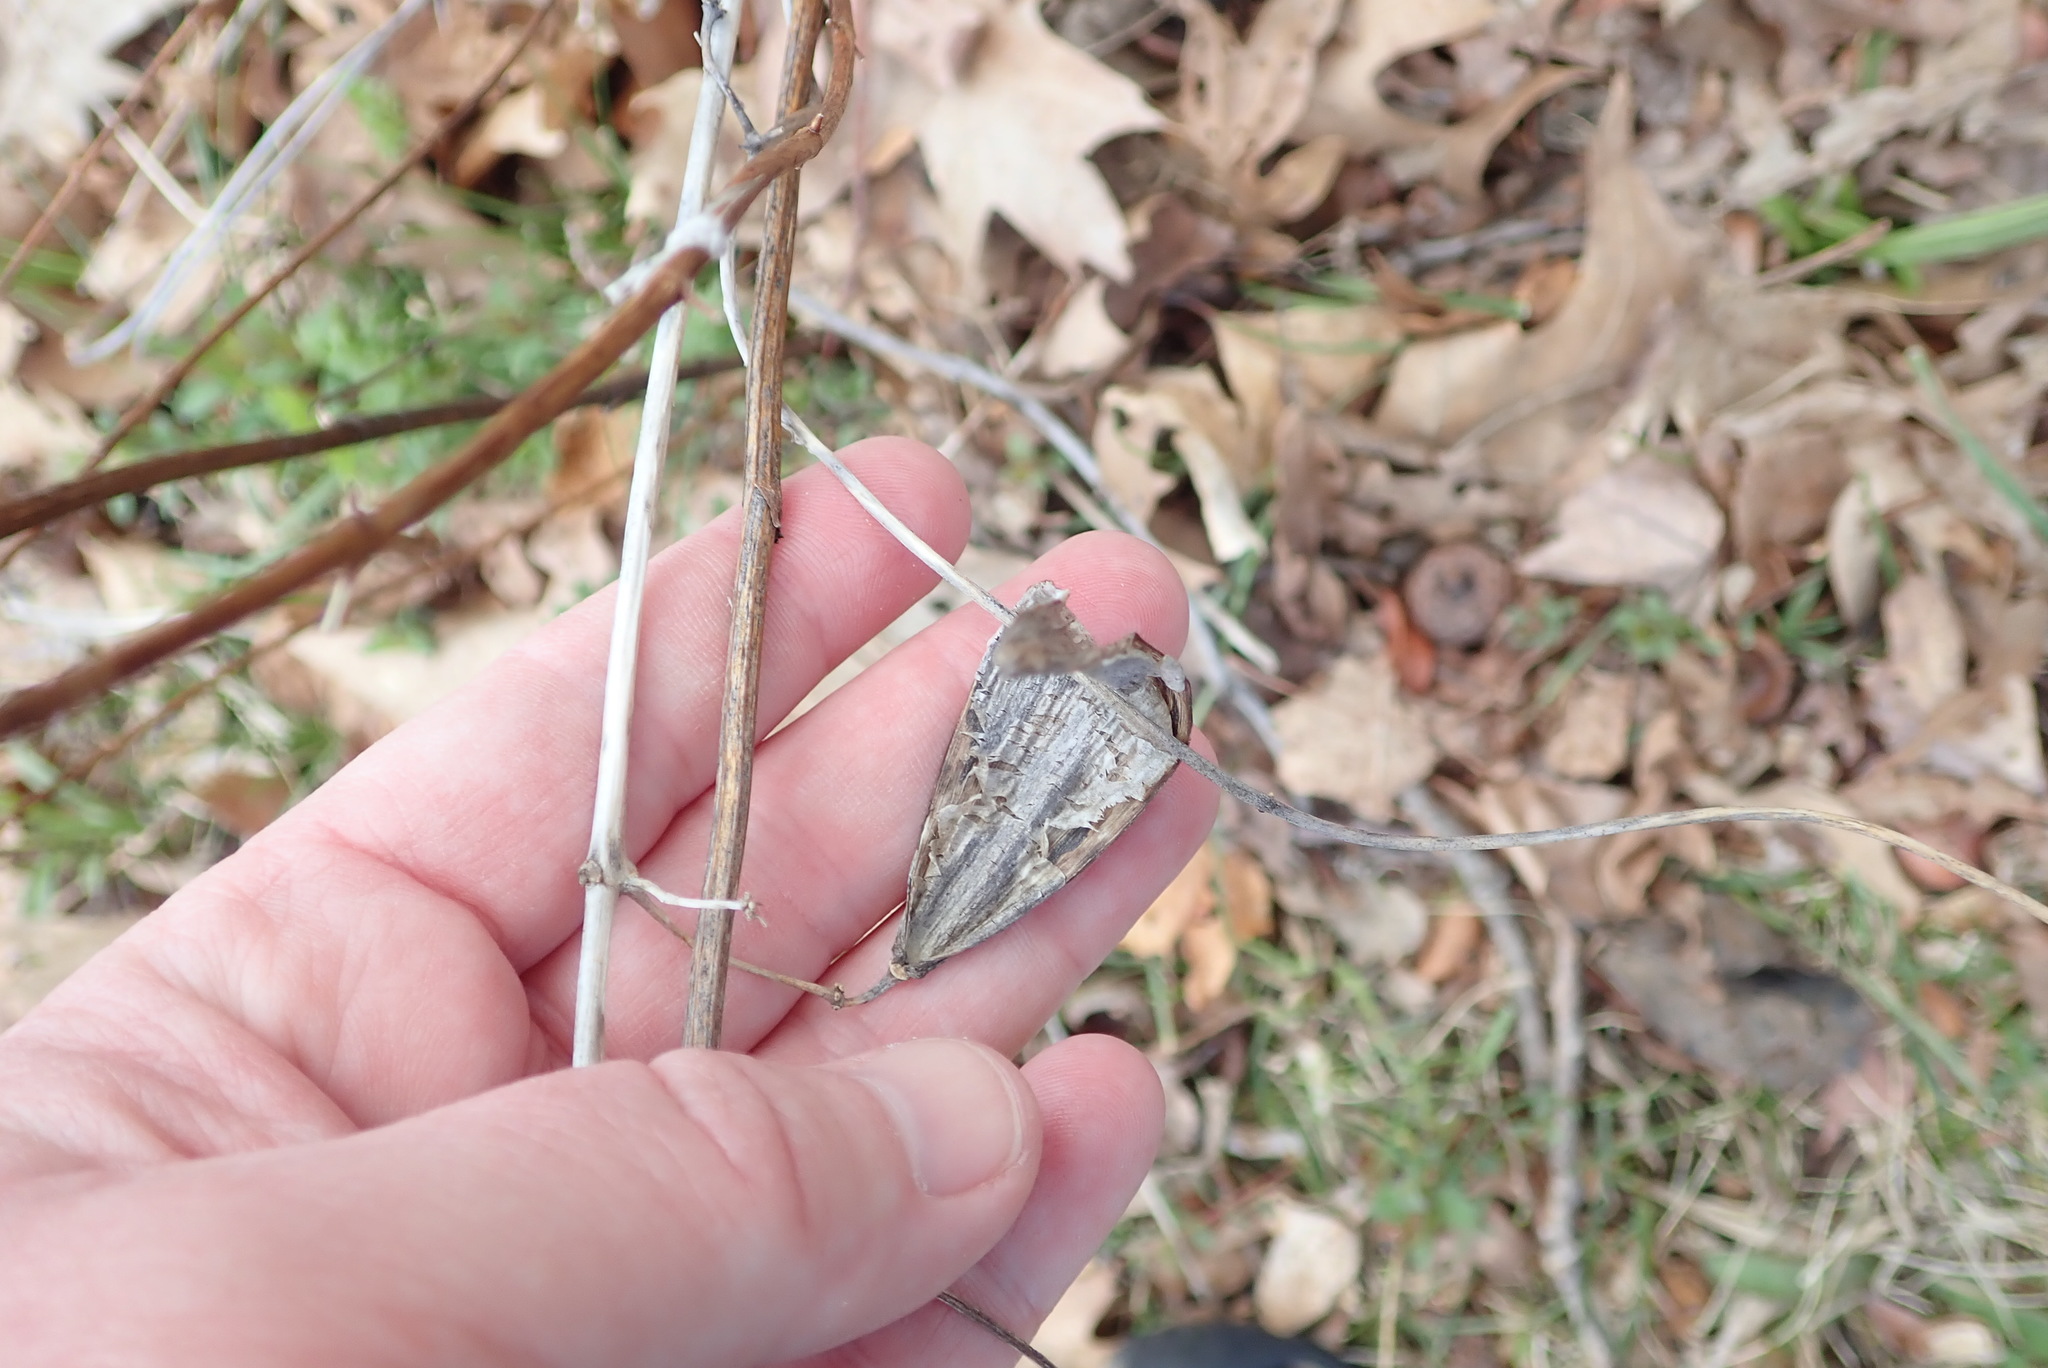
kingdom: Plantae
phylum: Tracheophyta
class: Magnoliopsida
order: Gentianales
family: Apocynaceae
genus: Vincetoxicum
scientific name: Vincetoxicum nigrum
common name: Black swallow-wort
